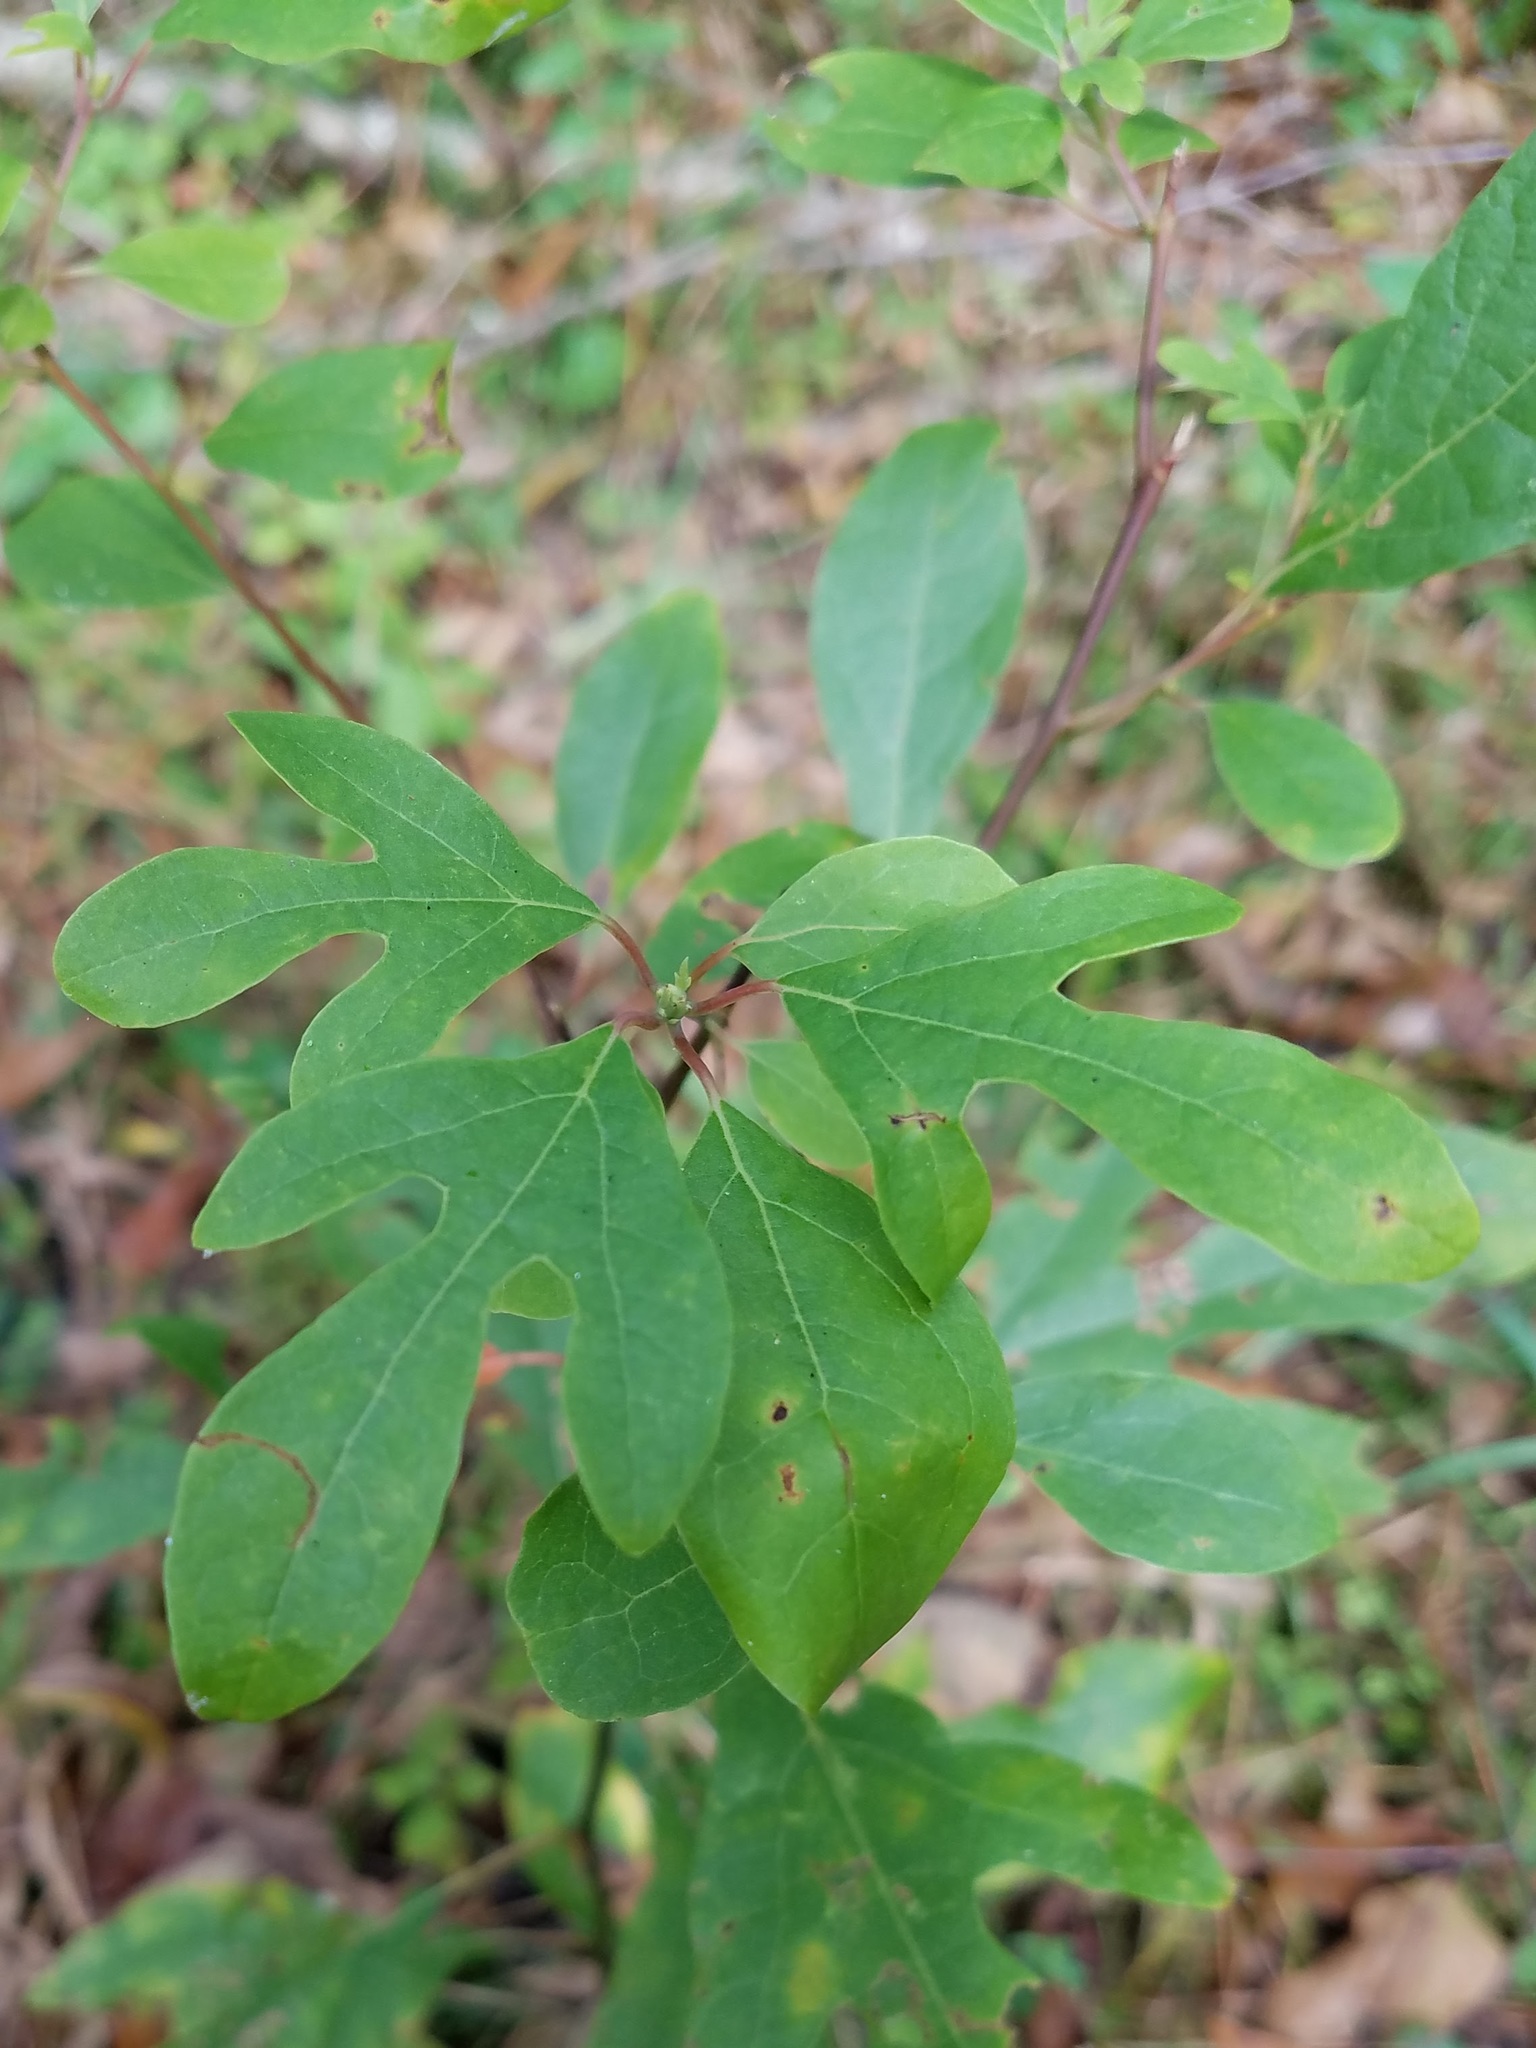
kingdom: Plantae
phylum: Tracheophyta
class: Magnoliopsida
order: Laurales
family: Lauraceae
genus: Sassafras
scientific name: Sassafras albidum
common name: Sassafras
